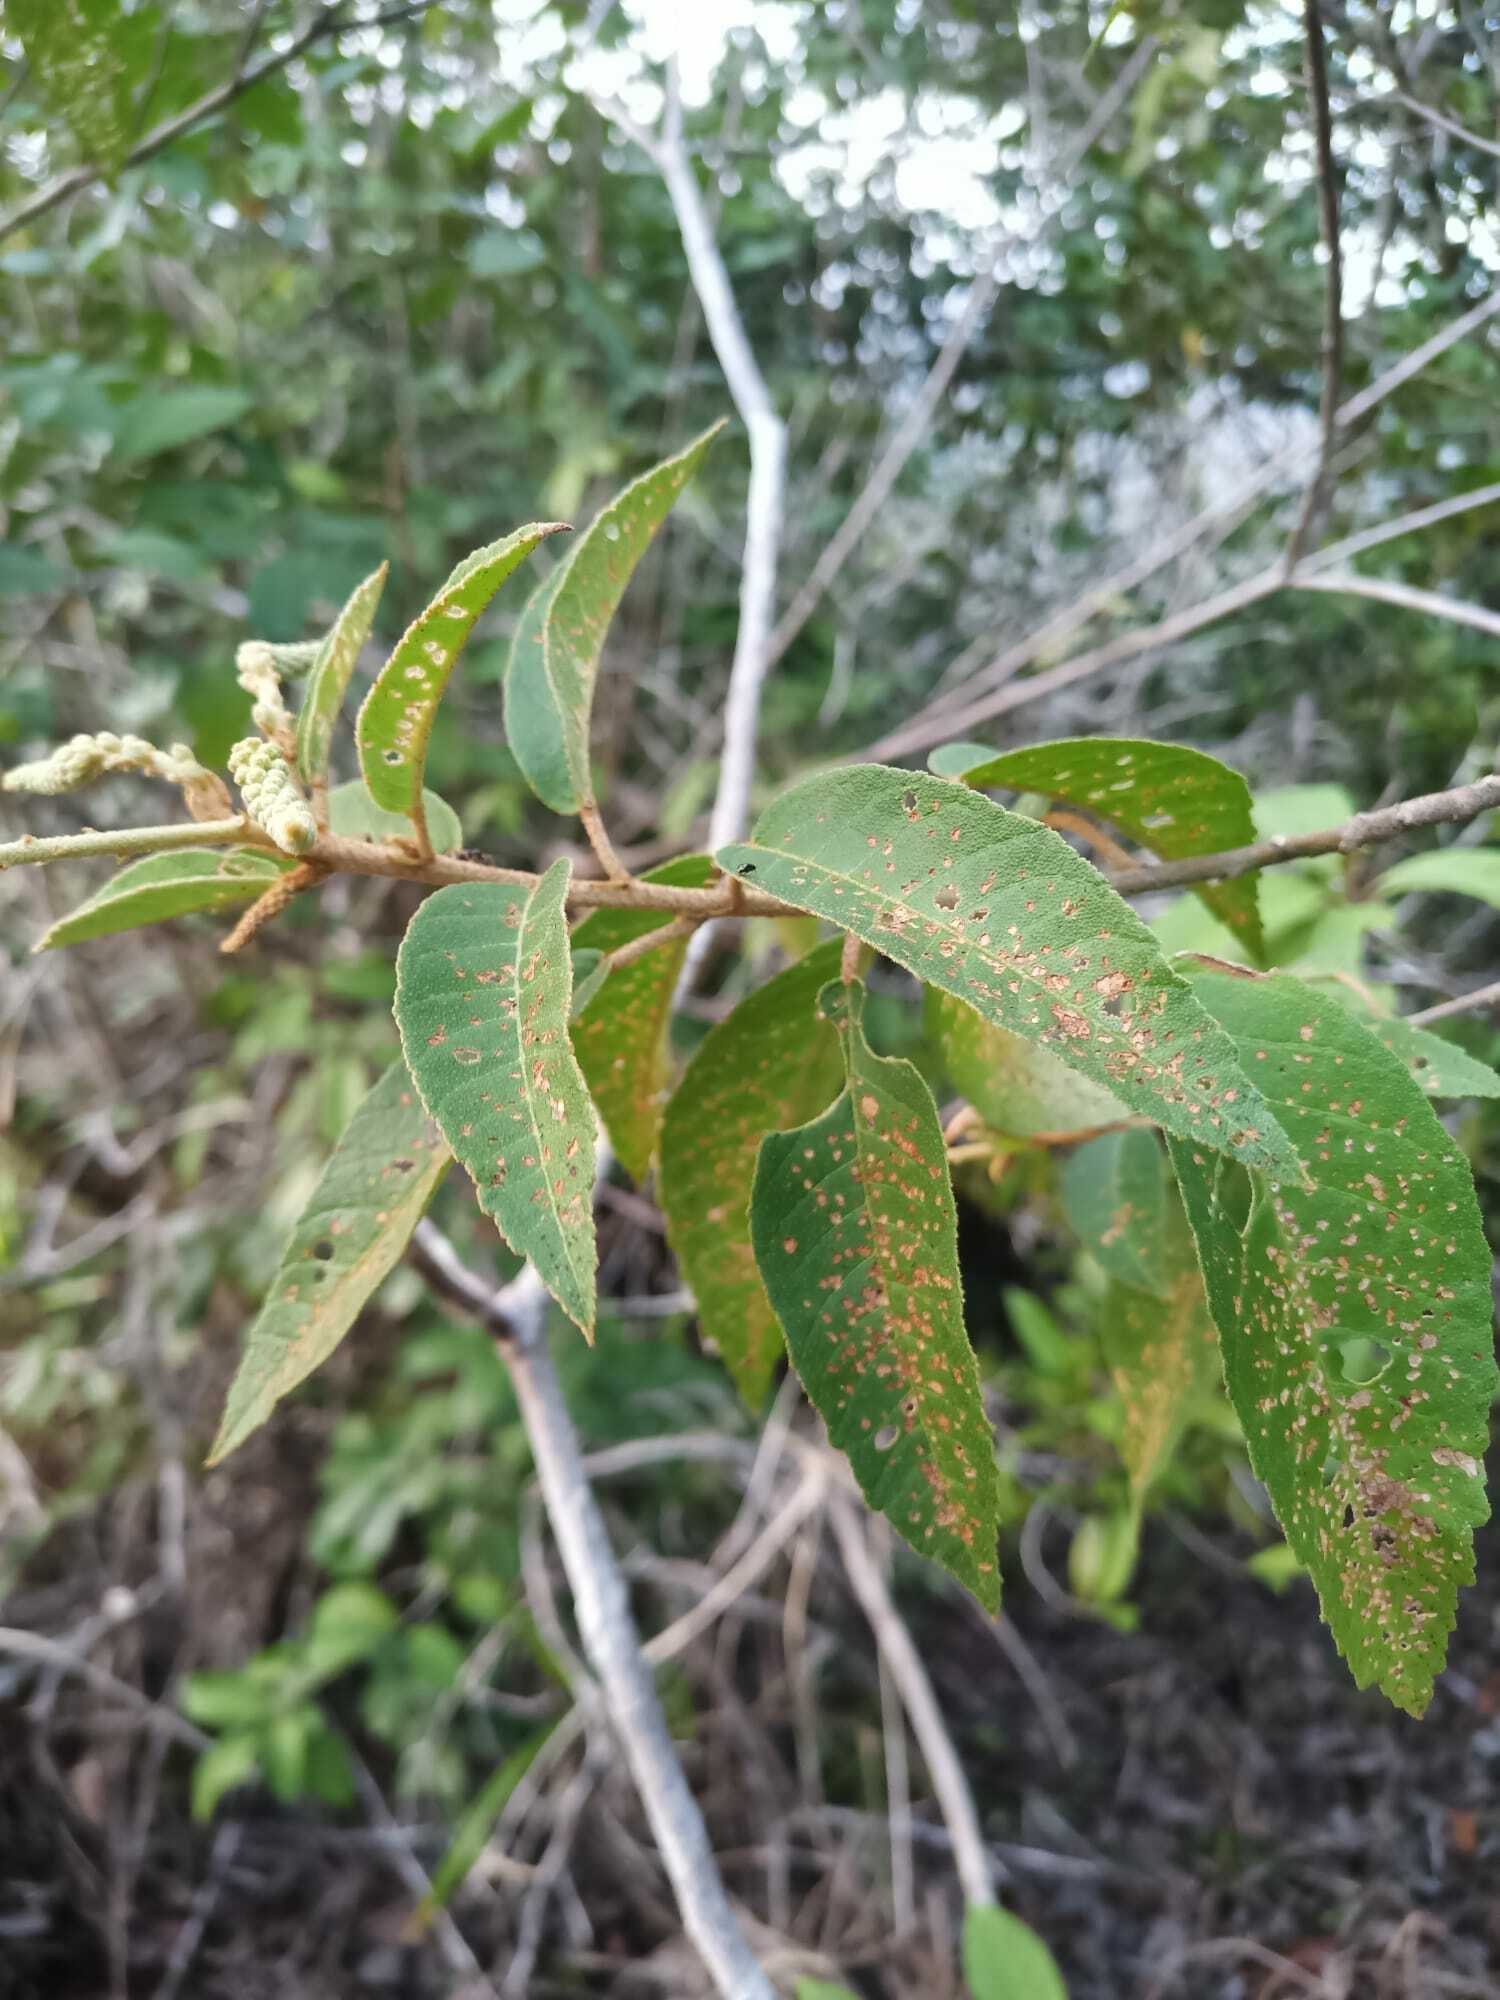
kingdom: Plantae
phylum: Tracheophyta
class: Magnoliopsida
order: Malpighiales
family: Euphorbiaceae
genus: Croton
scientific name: Croton hostmannii
